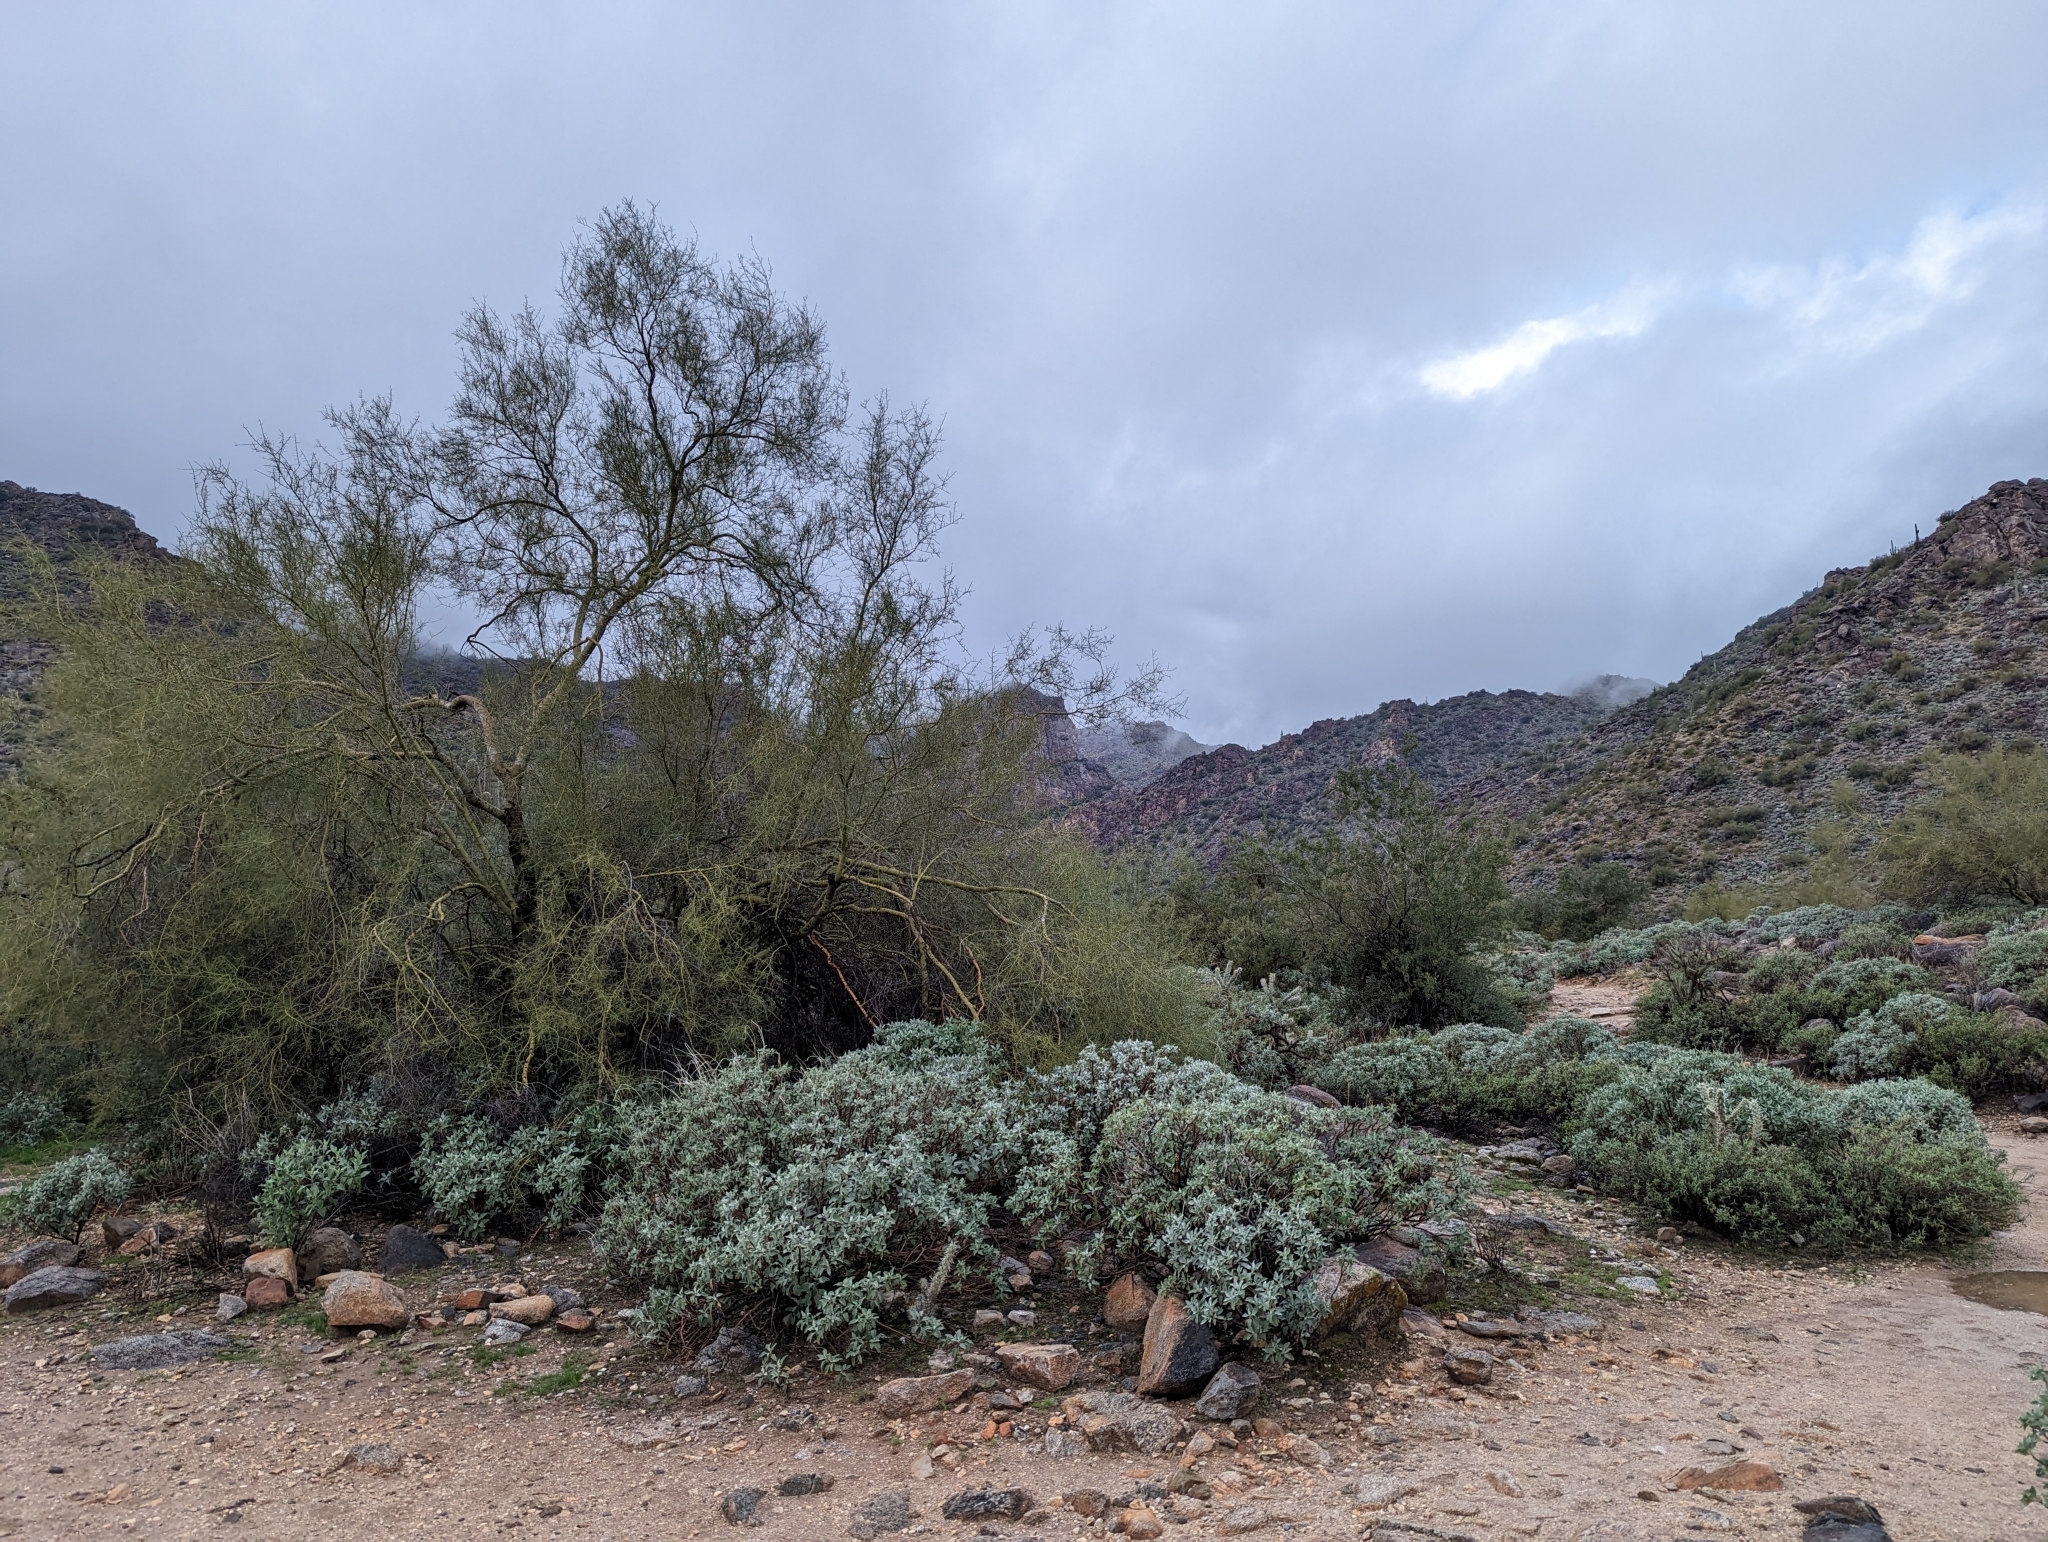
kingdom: Plantae
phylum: Tracheophyta
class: Magnoliopsida
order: Fabales
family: Fabaceae
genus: Parkinsonia
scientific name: Parkinsonia microphylla
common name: Yellow paloverde
